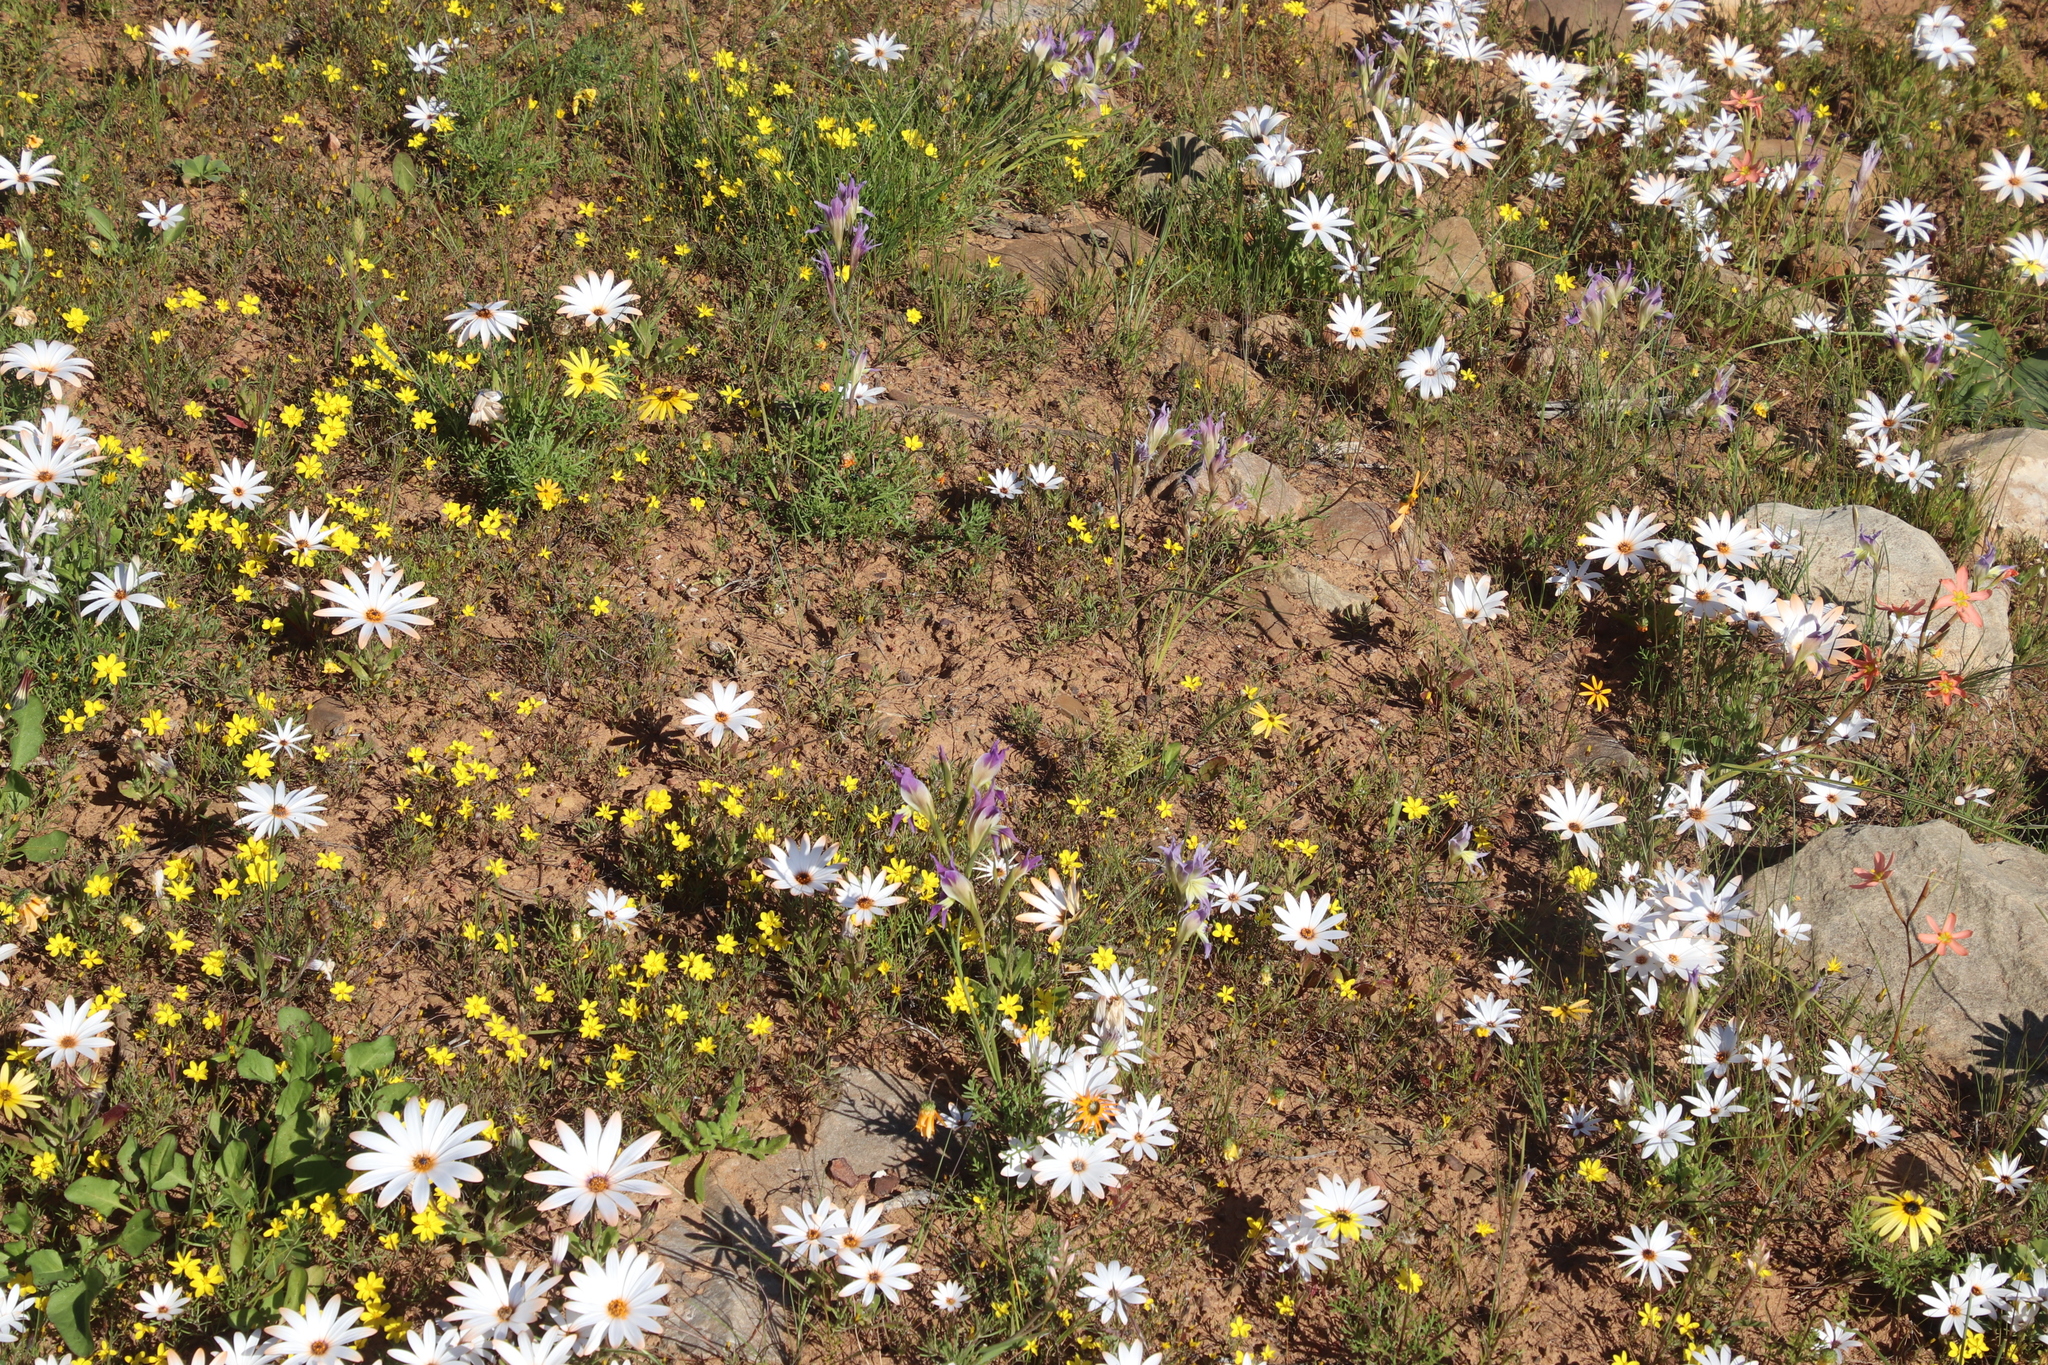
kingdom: Plantae
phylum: Tracheophyta
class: Liliopsida
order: Asparagales
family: Iridaceae
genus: Gladiolus
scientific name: Gladiolus venustus
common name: Purple kalkoentjie
